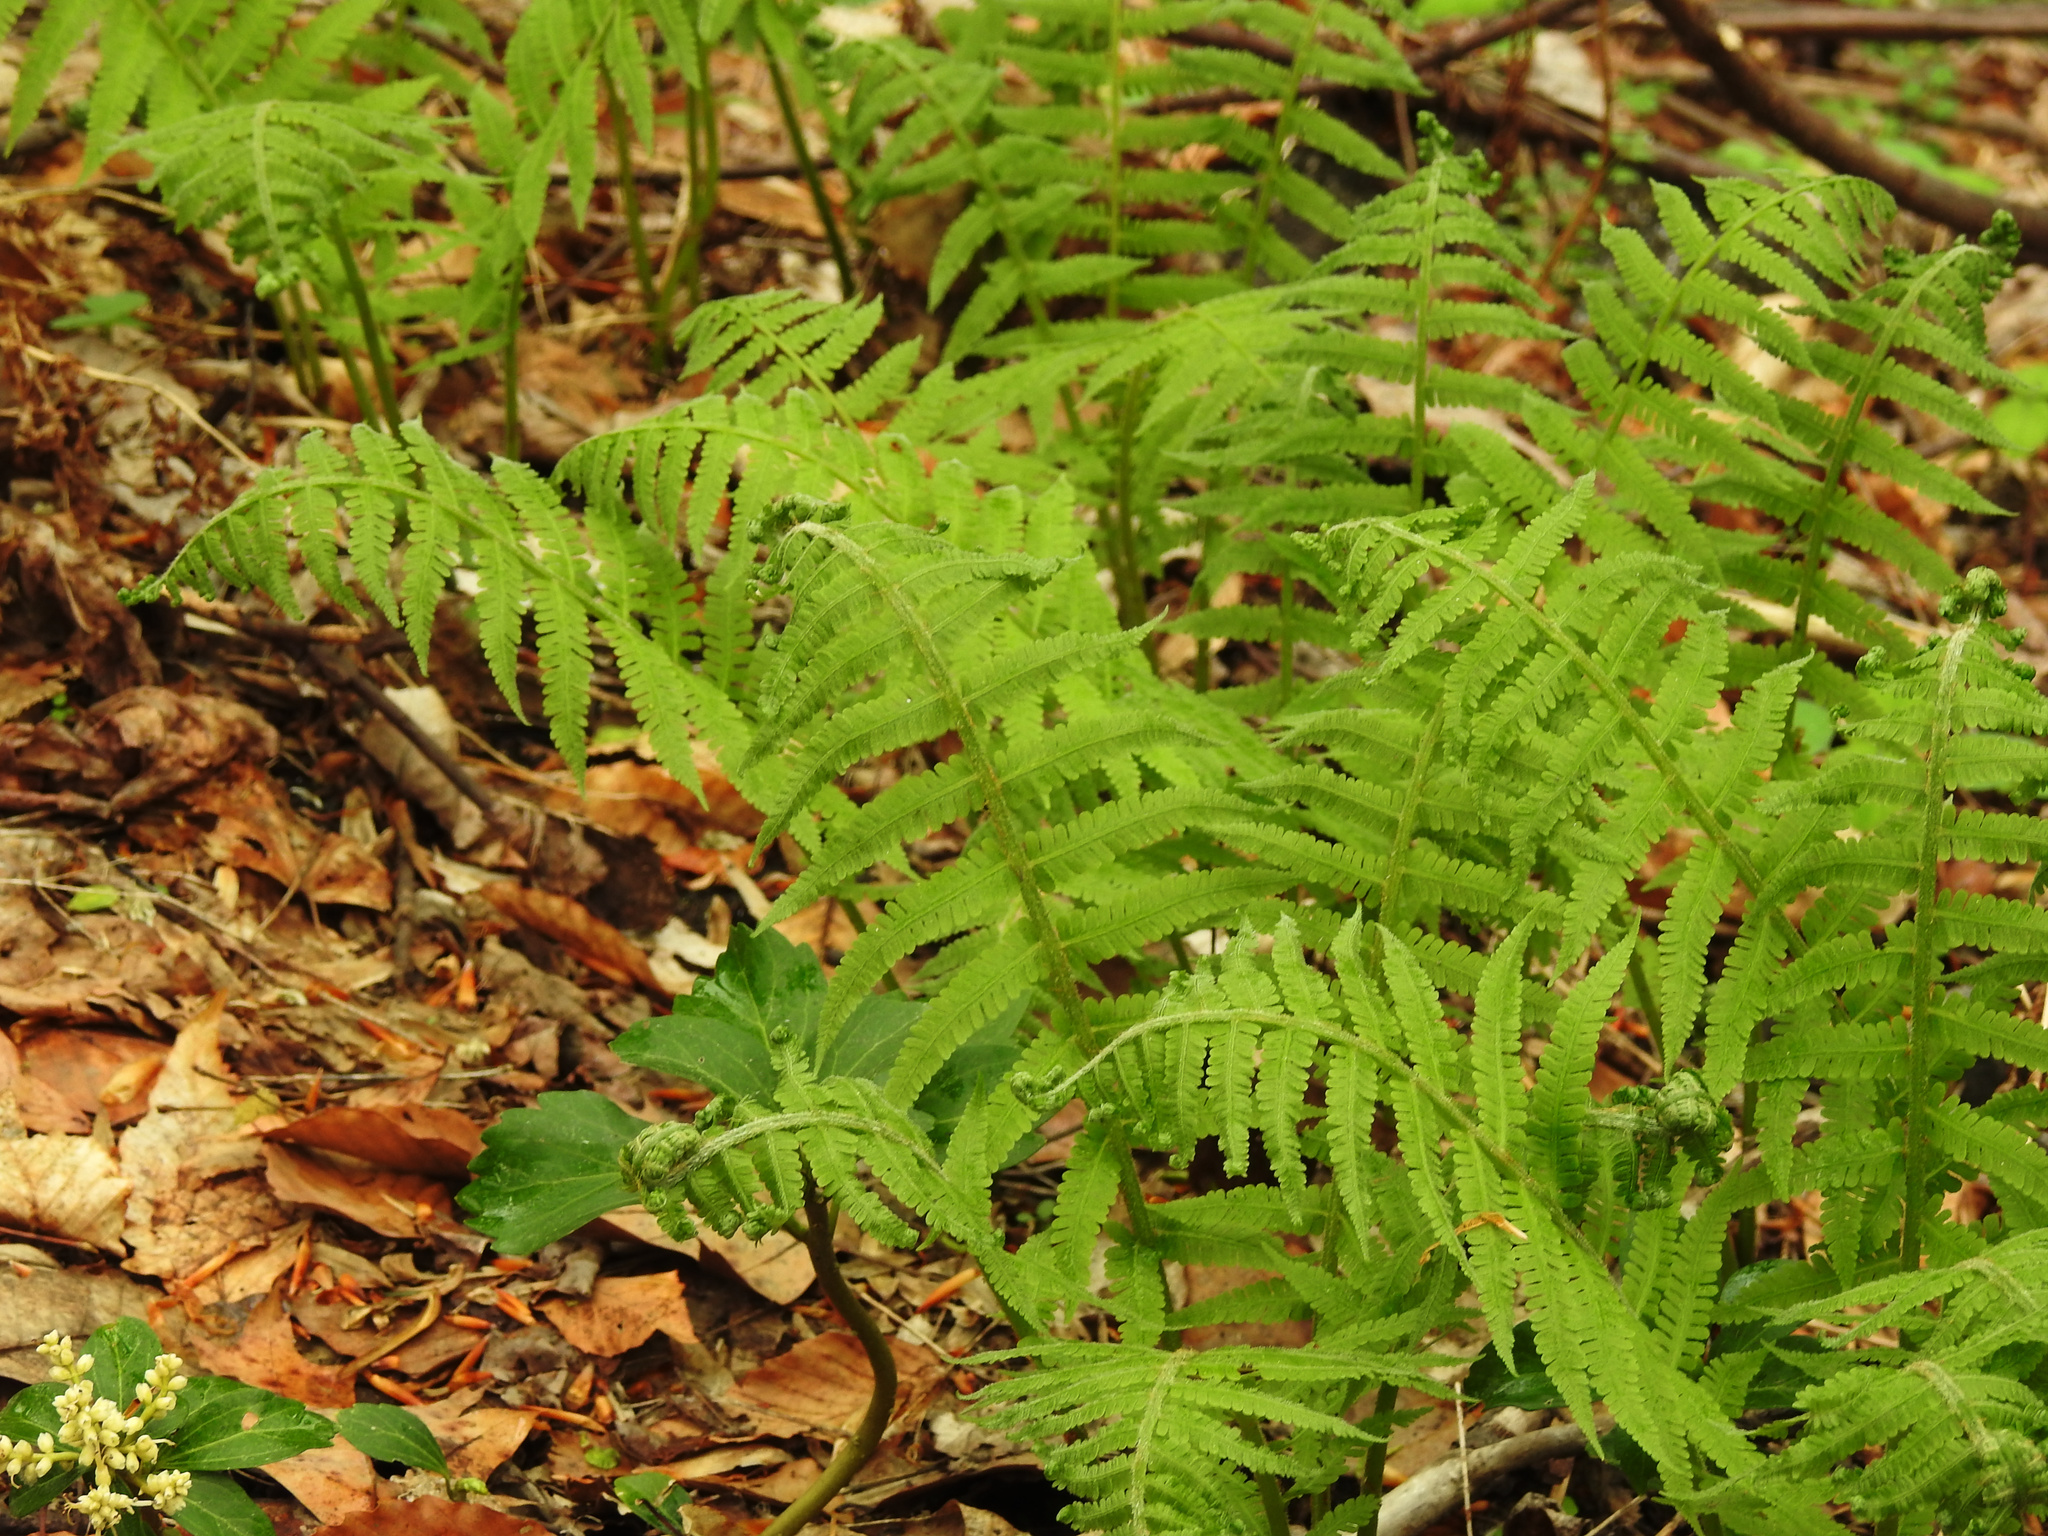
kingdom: Plantae
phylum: Tracheophyta
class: Polypodiopsida
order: Polypodiales
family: Athyriaceae
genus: Deparia
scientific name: Deparia acrostichoides
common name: Silver false spleenwort
